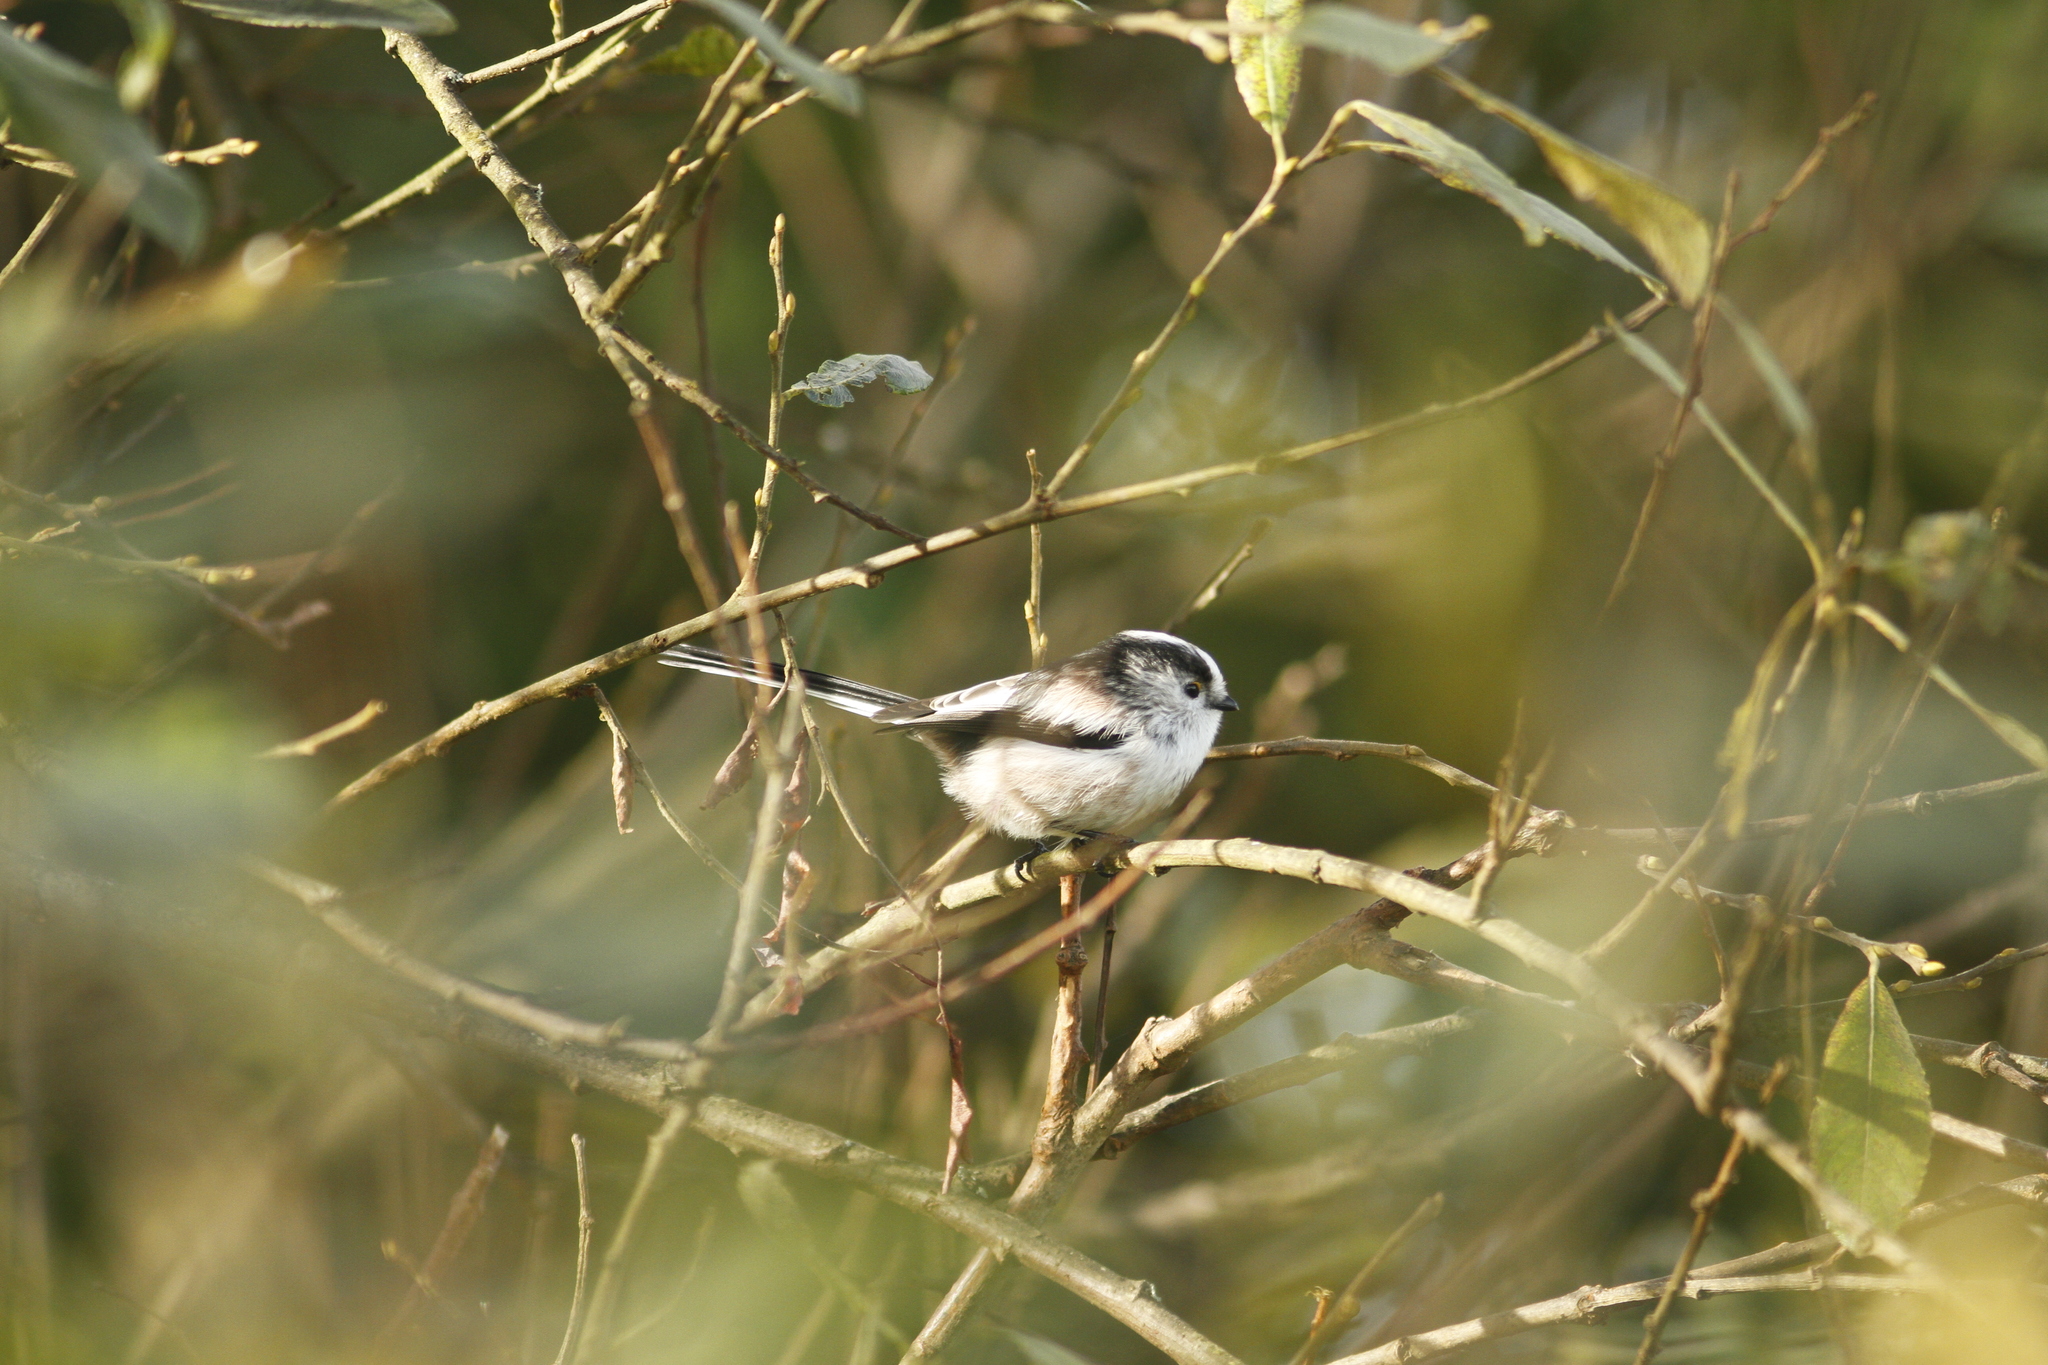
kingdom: Animalia
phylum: Chordata
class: Aves
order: Passeriformes
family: Aegithalidae
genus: Aegithalos
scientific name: Aegithalos caudatus
